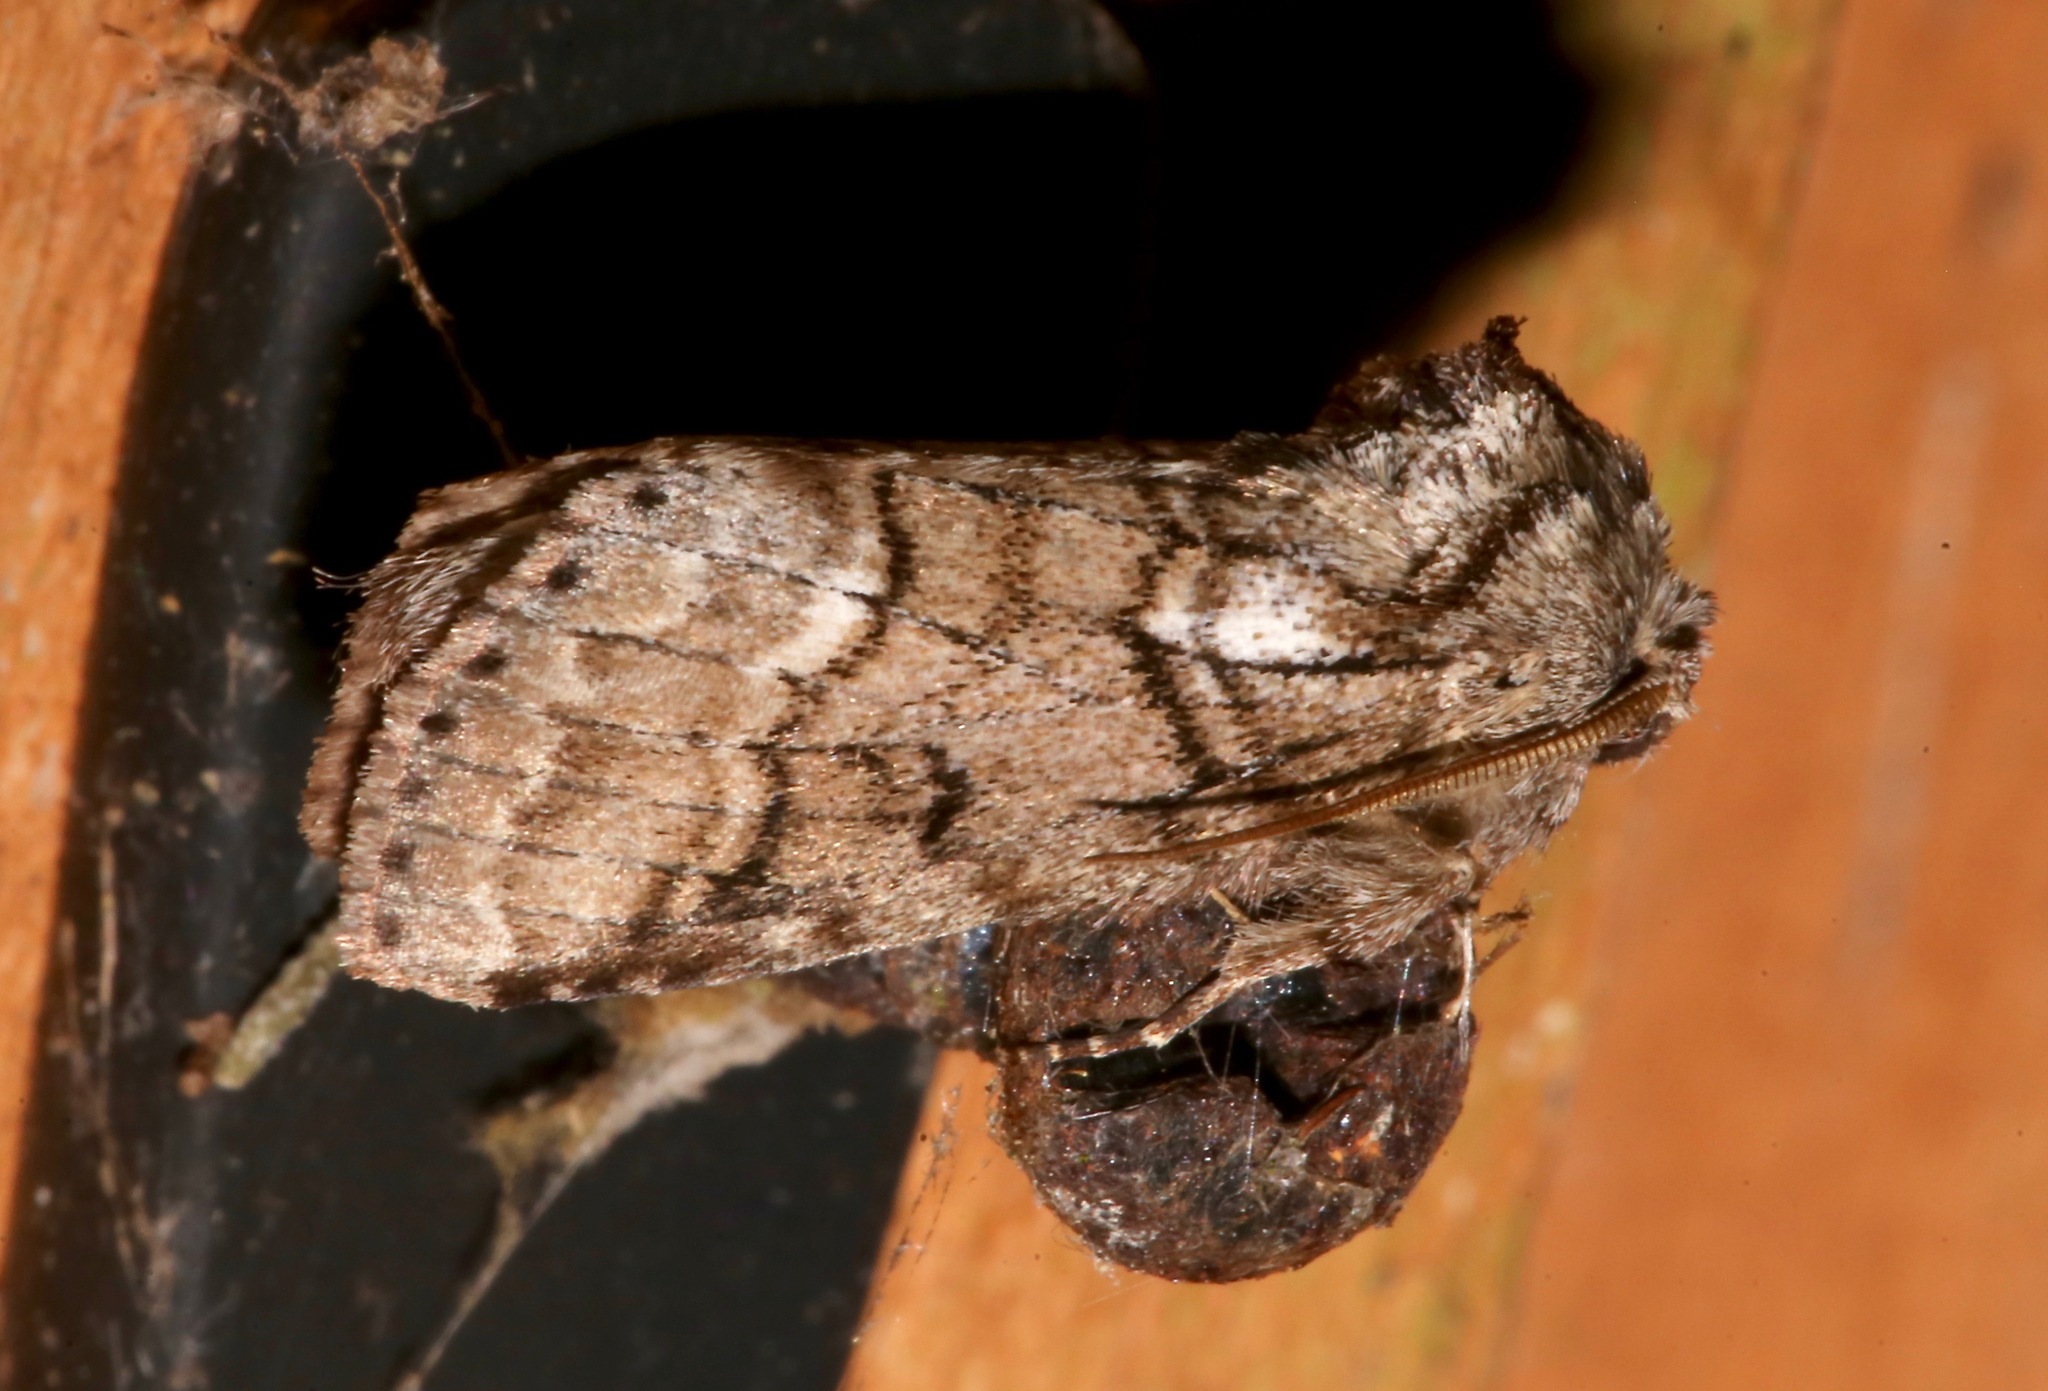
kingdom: Animalia
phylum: Arthropoda
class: Insecta
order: Lepidoptera
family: Notodontidae
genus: Lochmaeus
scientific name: Lochmaeus bilineata
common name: Double-lined prominent
